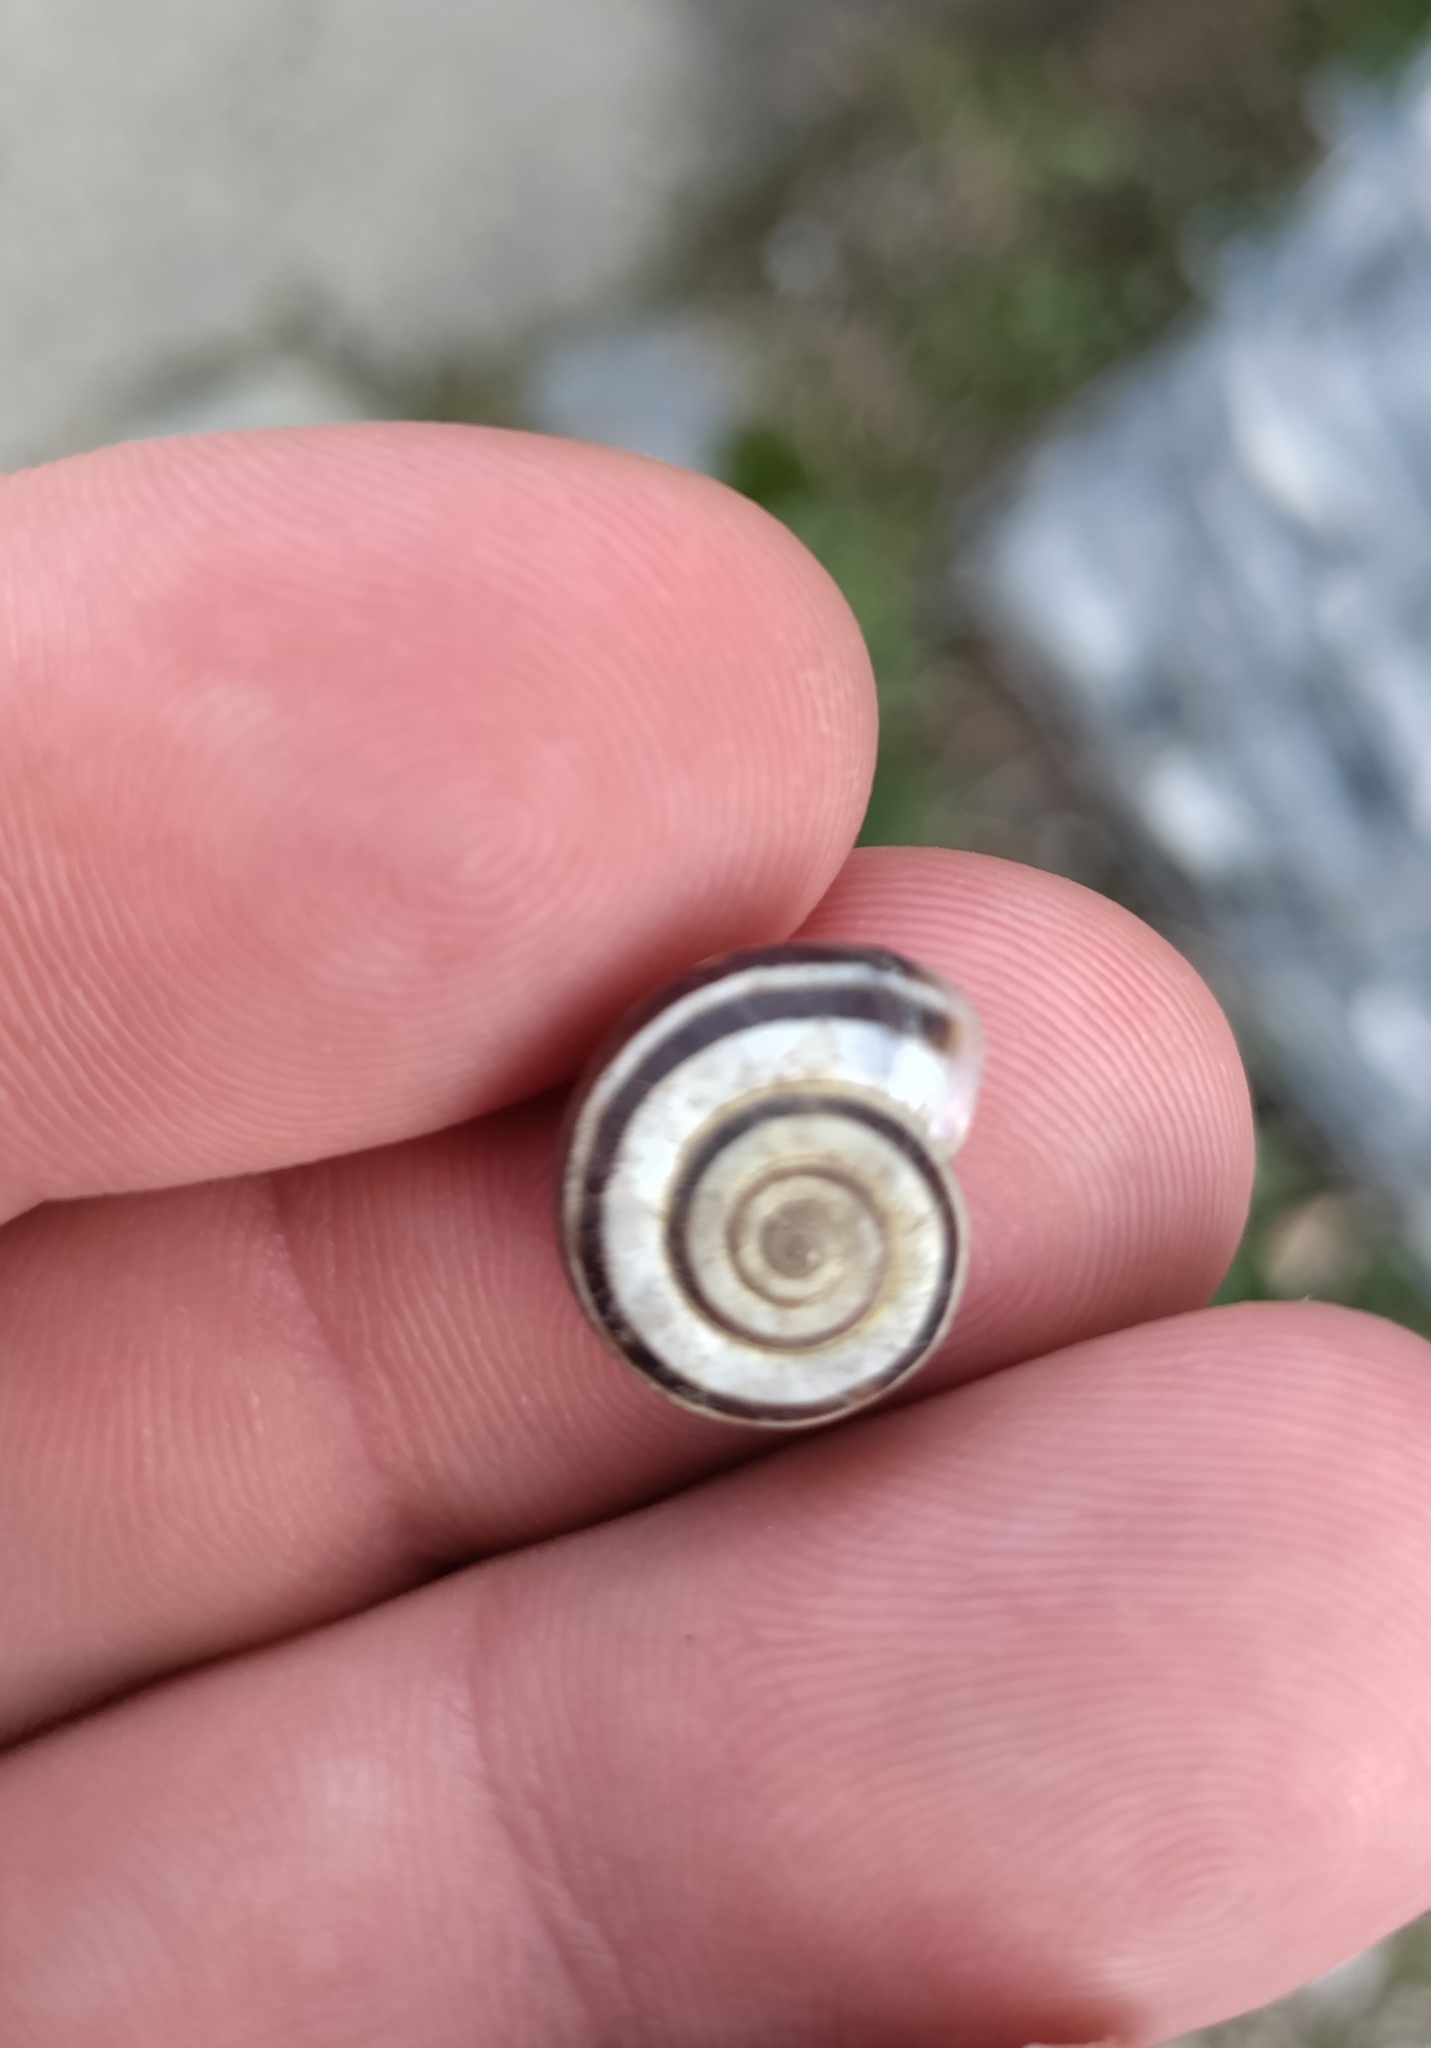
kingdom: Animalia
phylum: Mollusca
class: Gastropoda
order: Stylommatophora
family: Geomitridae
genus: Xerolenta
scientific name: Xerolenta obvia
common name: White heath snail
